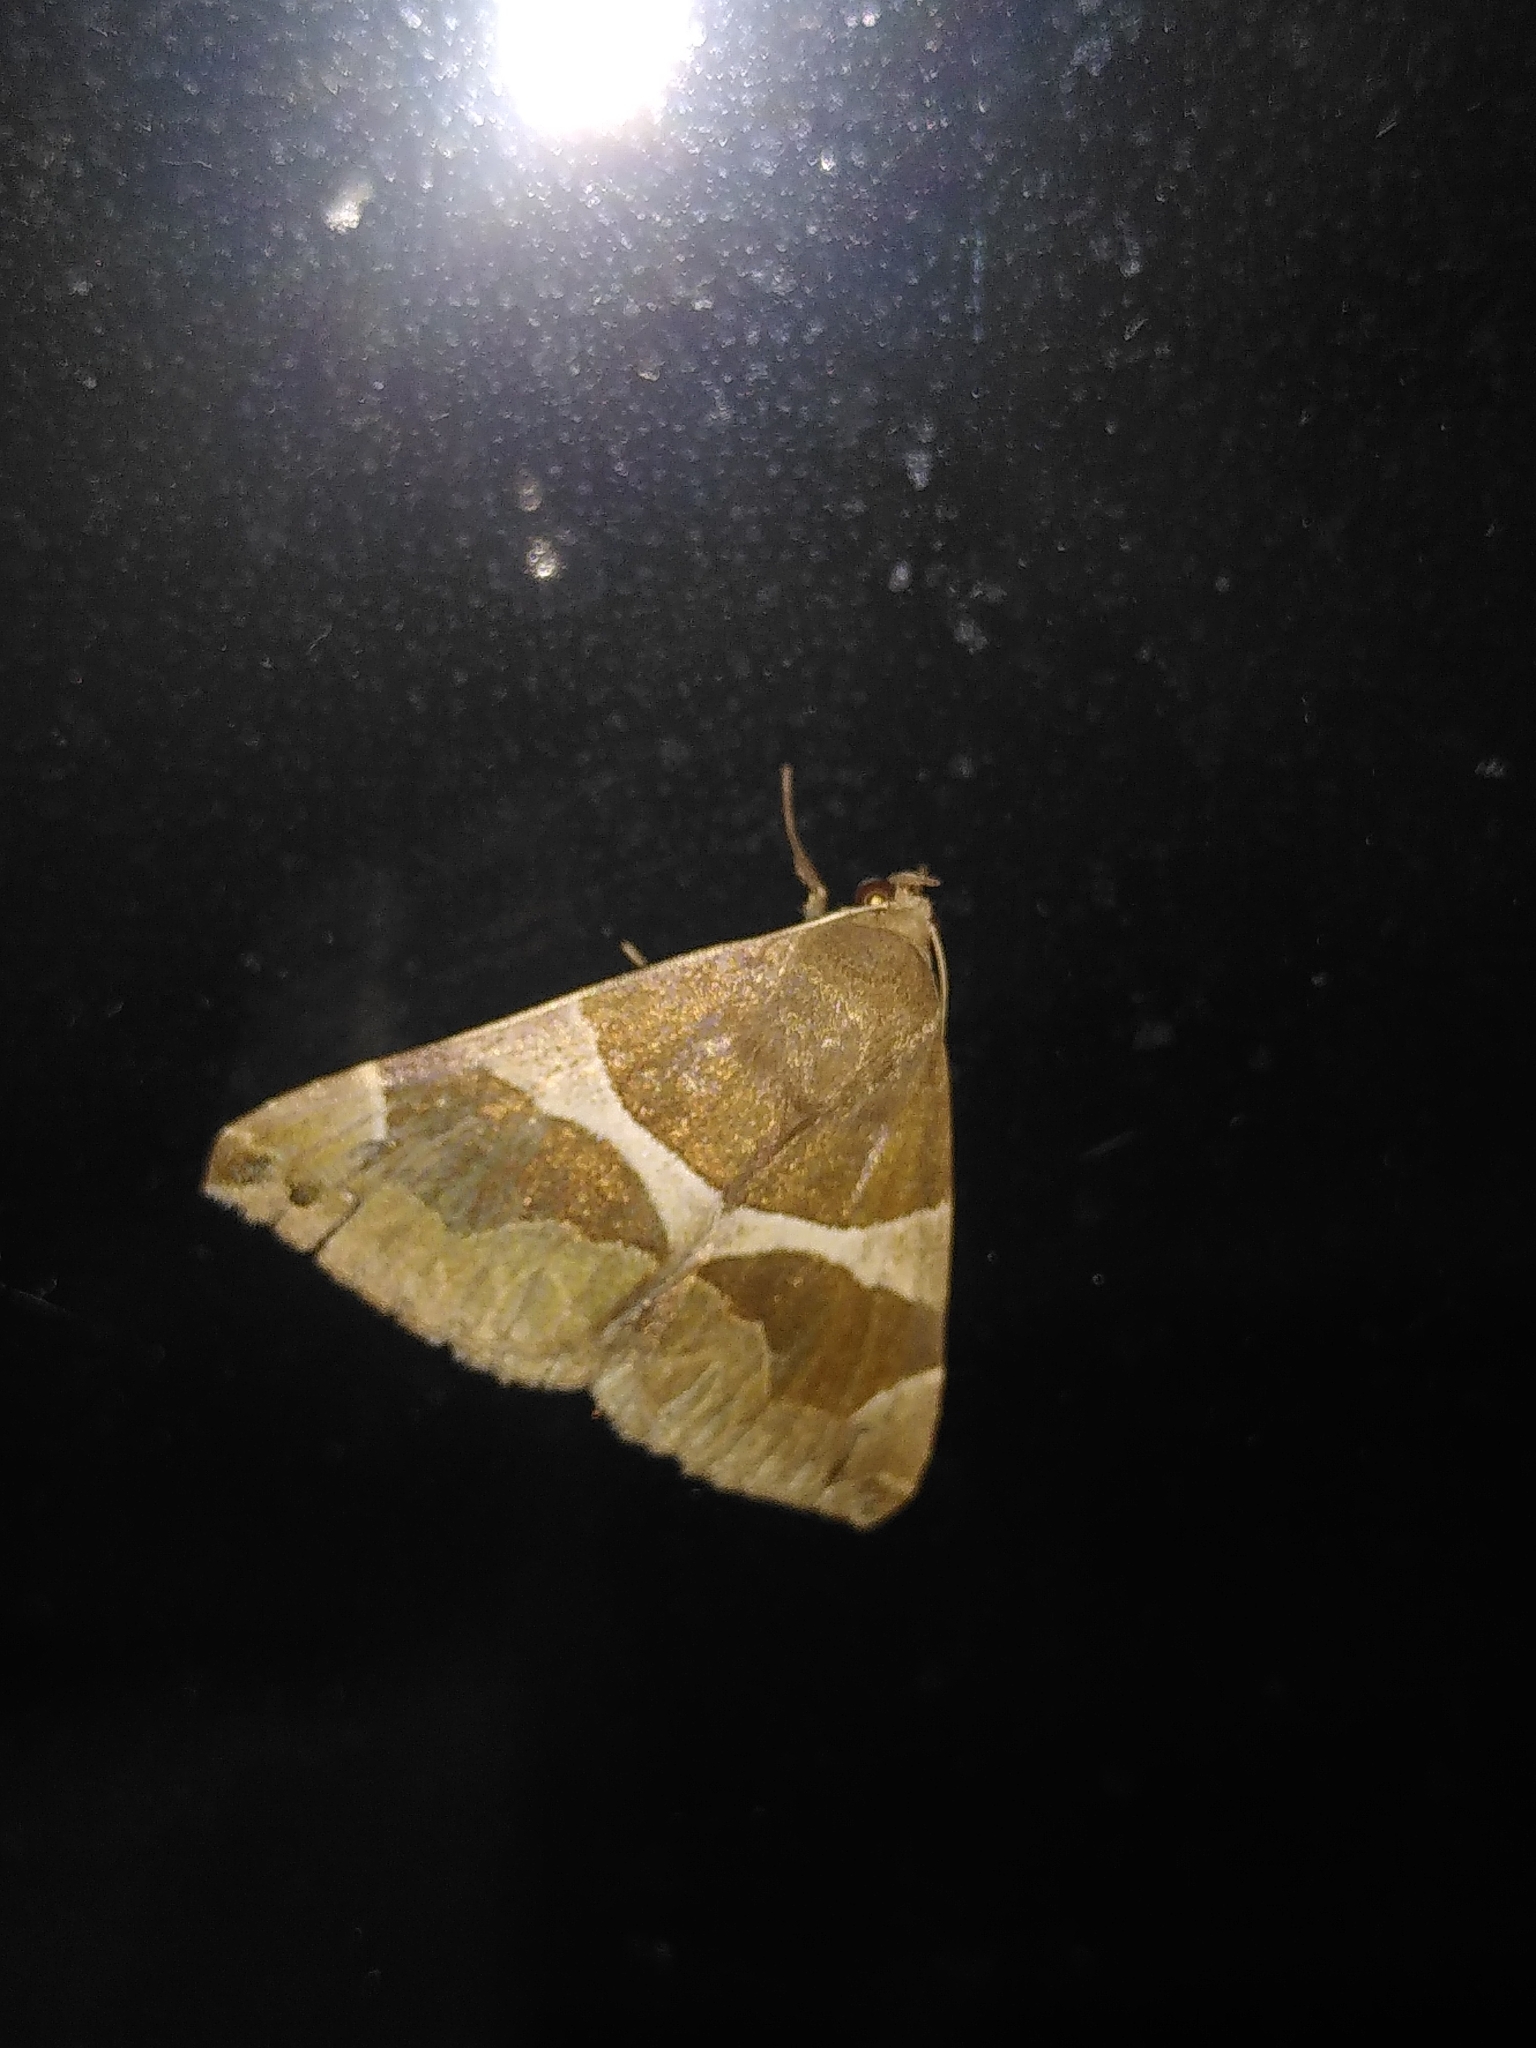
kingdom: Animalia
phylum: Arthropoda
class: Insecta
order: Lepidoptera
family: Erebidae
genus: Dysgonia
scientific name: Dysgonia algira
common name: Passenger
